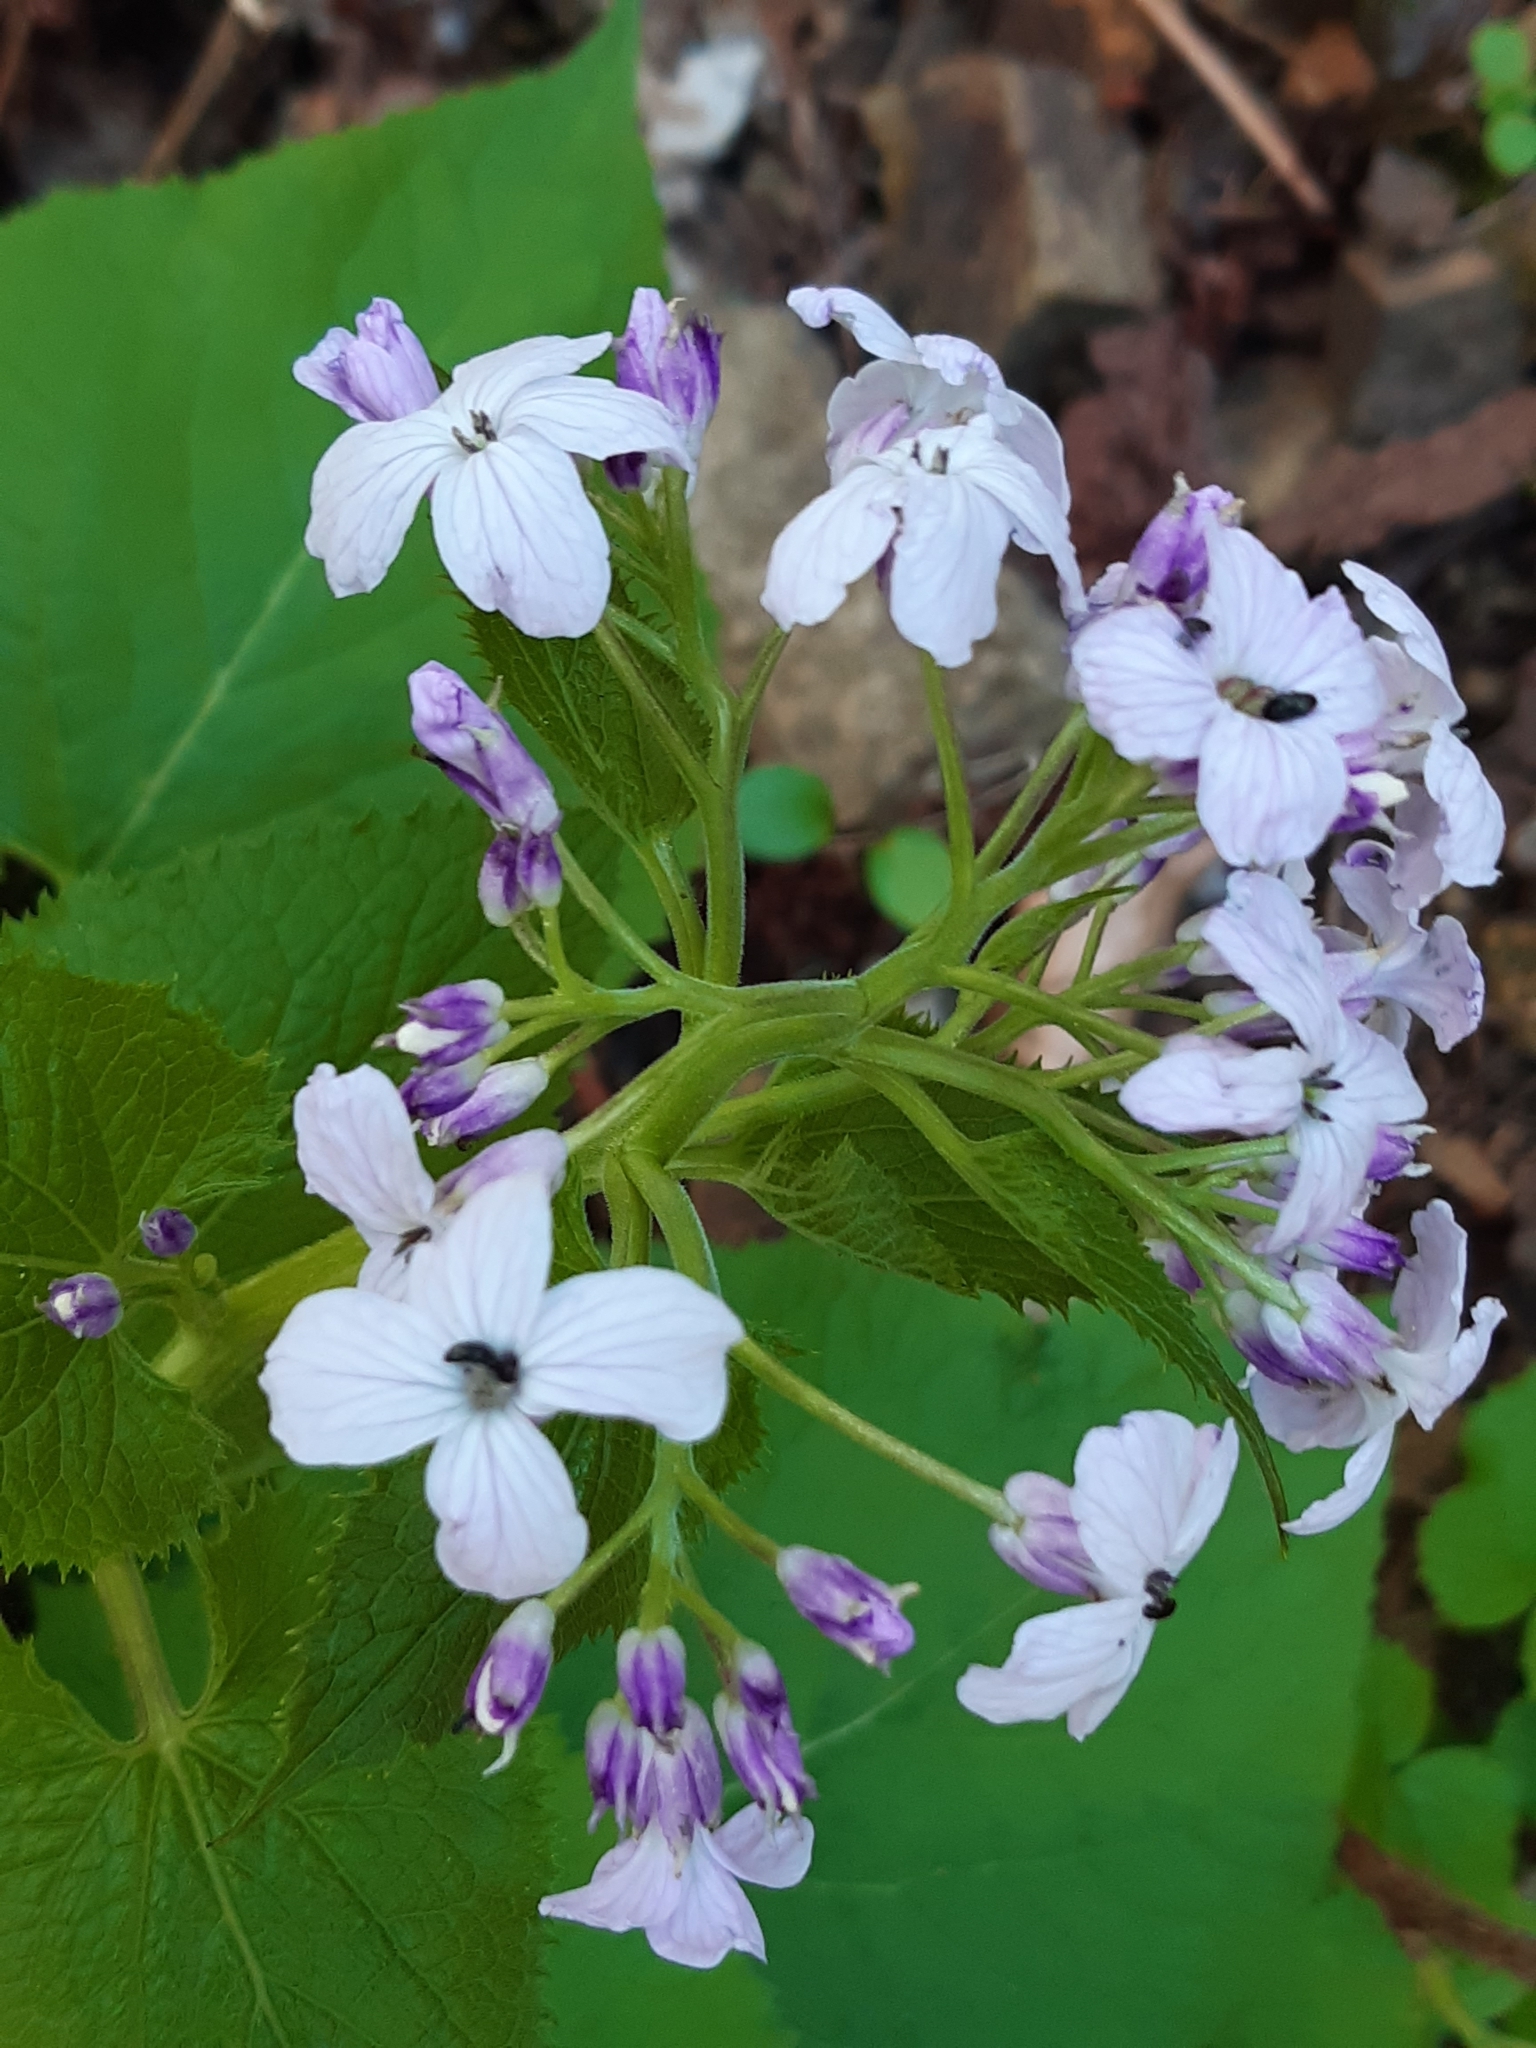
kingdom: Plantae
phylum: Tracheophyta
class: Magnoliopsida
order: Brassicales
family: Brassicaceae
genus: Lunaria
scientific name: Lunaria rediviva
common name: Perennial honesty
